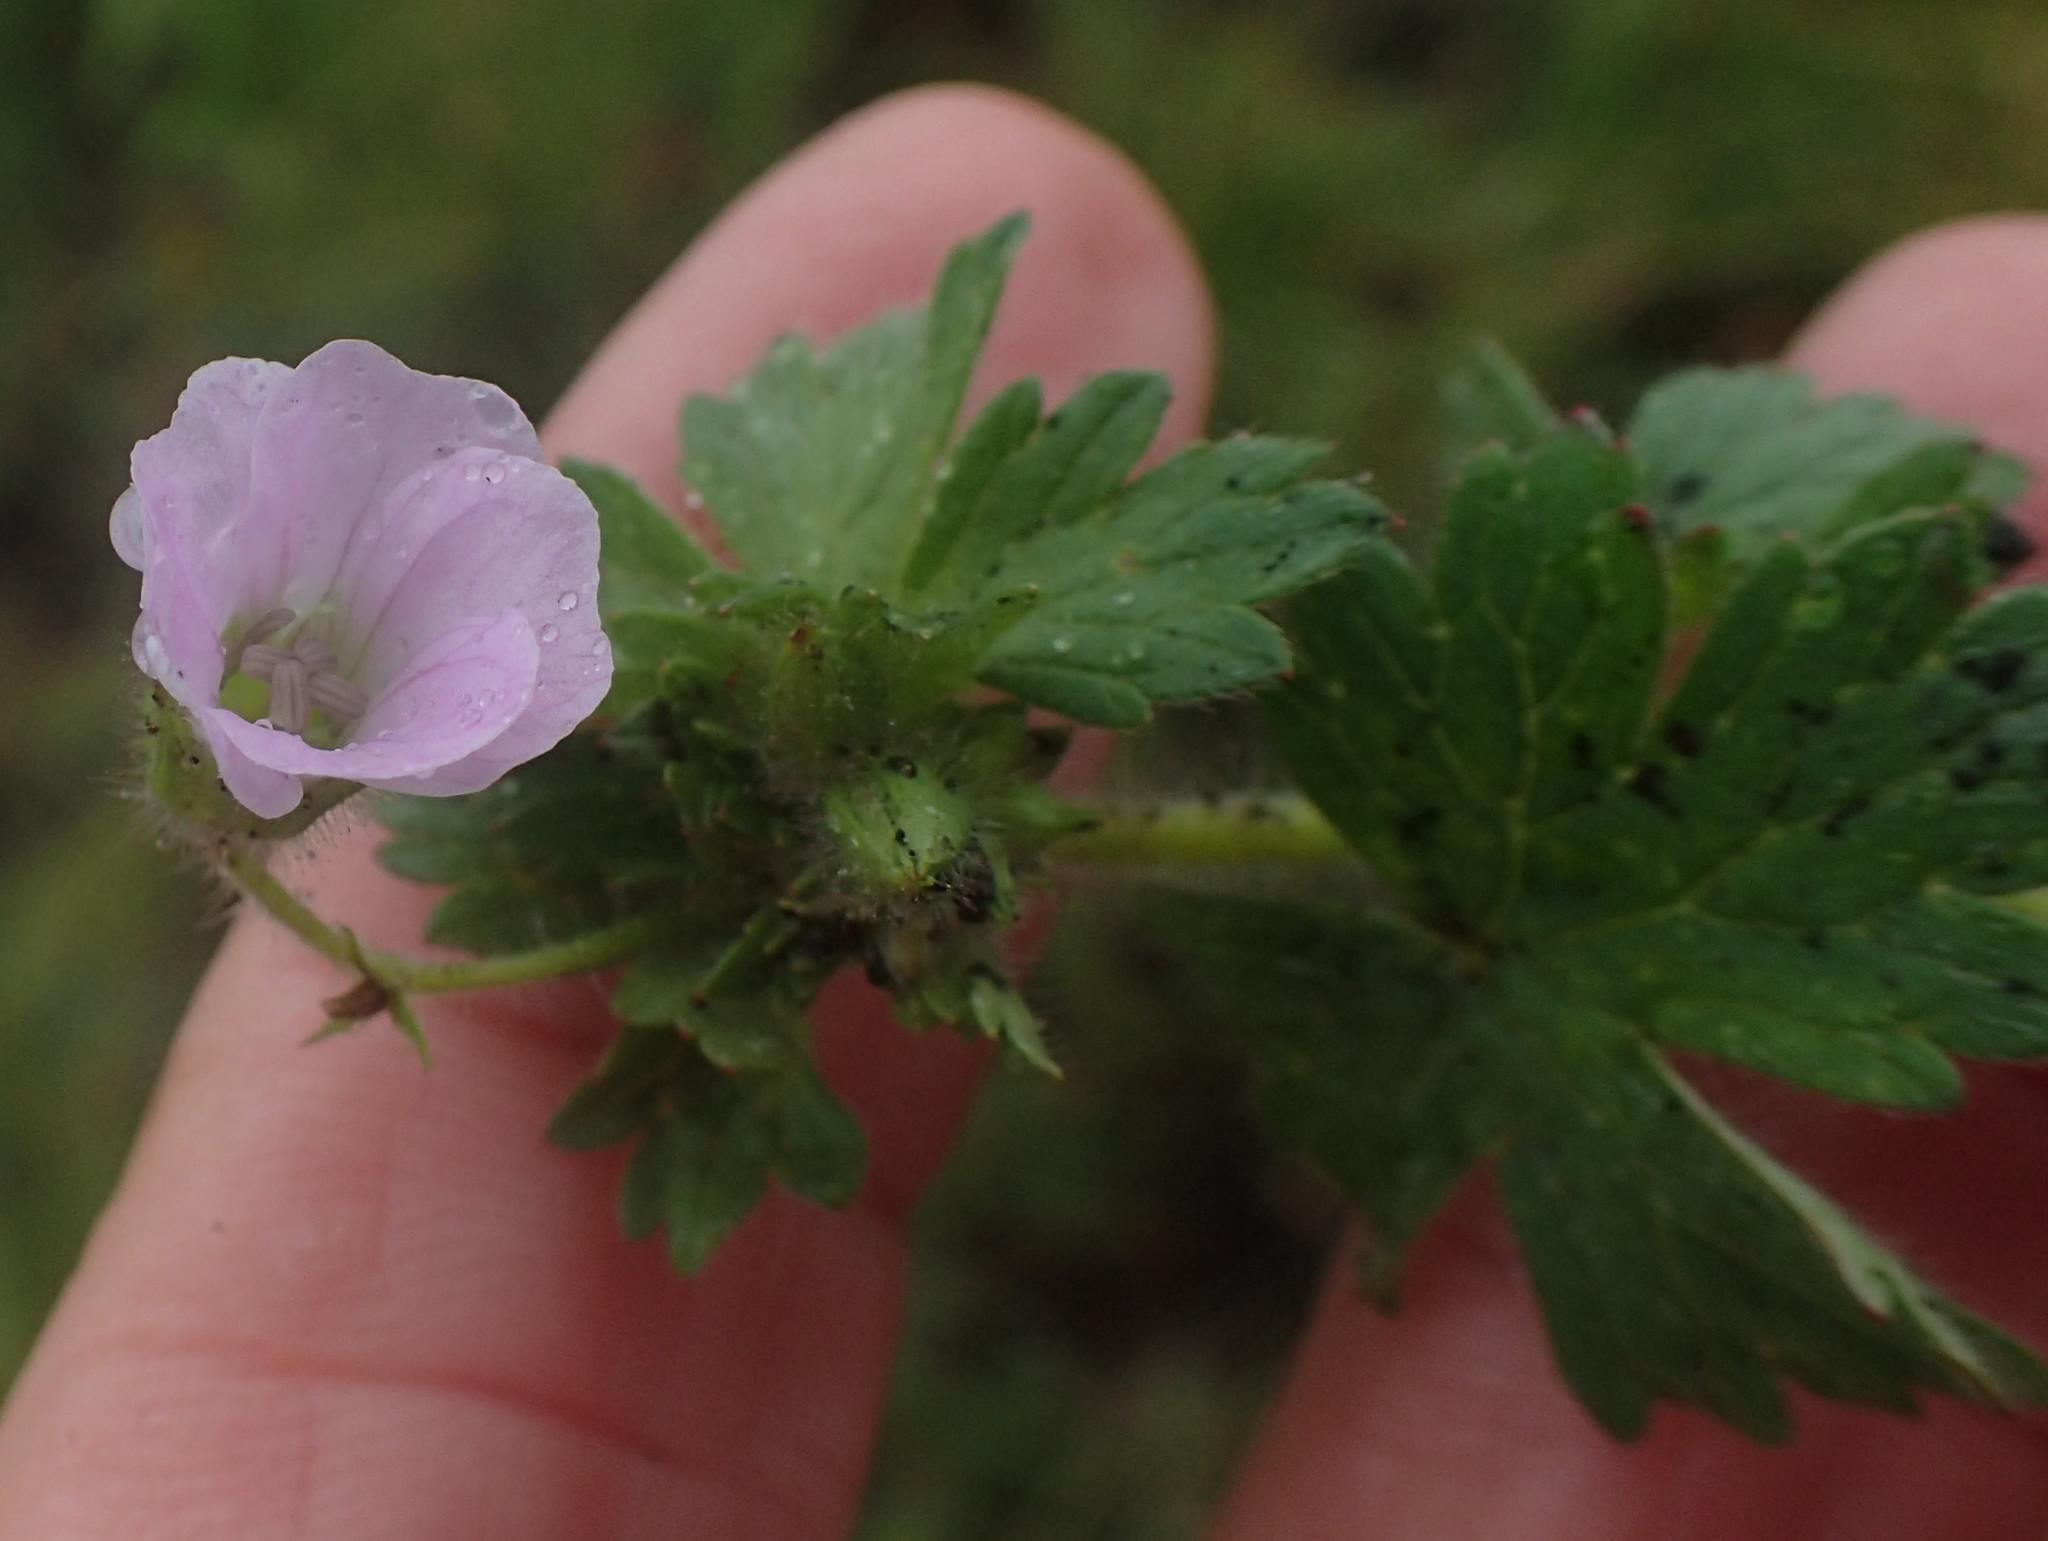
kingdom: Plantae
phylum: Tracheophyta
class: Magnoliopsida
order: Geraniales
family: Geraniaceae
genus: Geranium
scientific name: Geranium wakkerstroomianum
